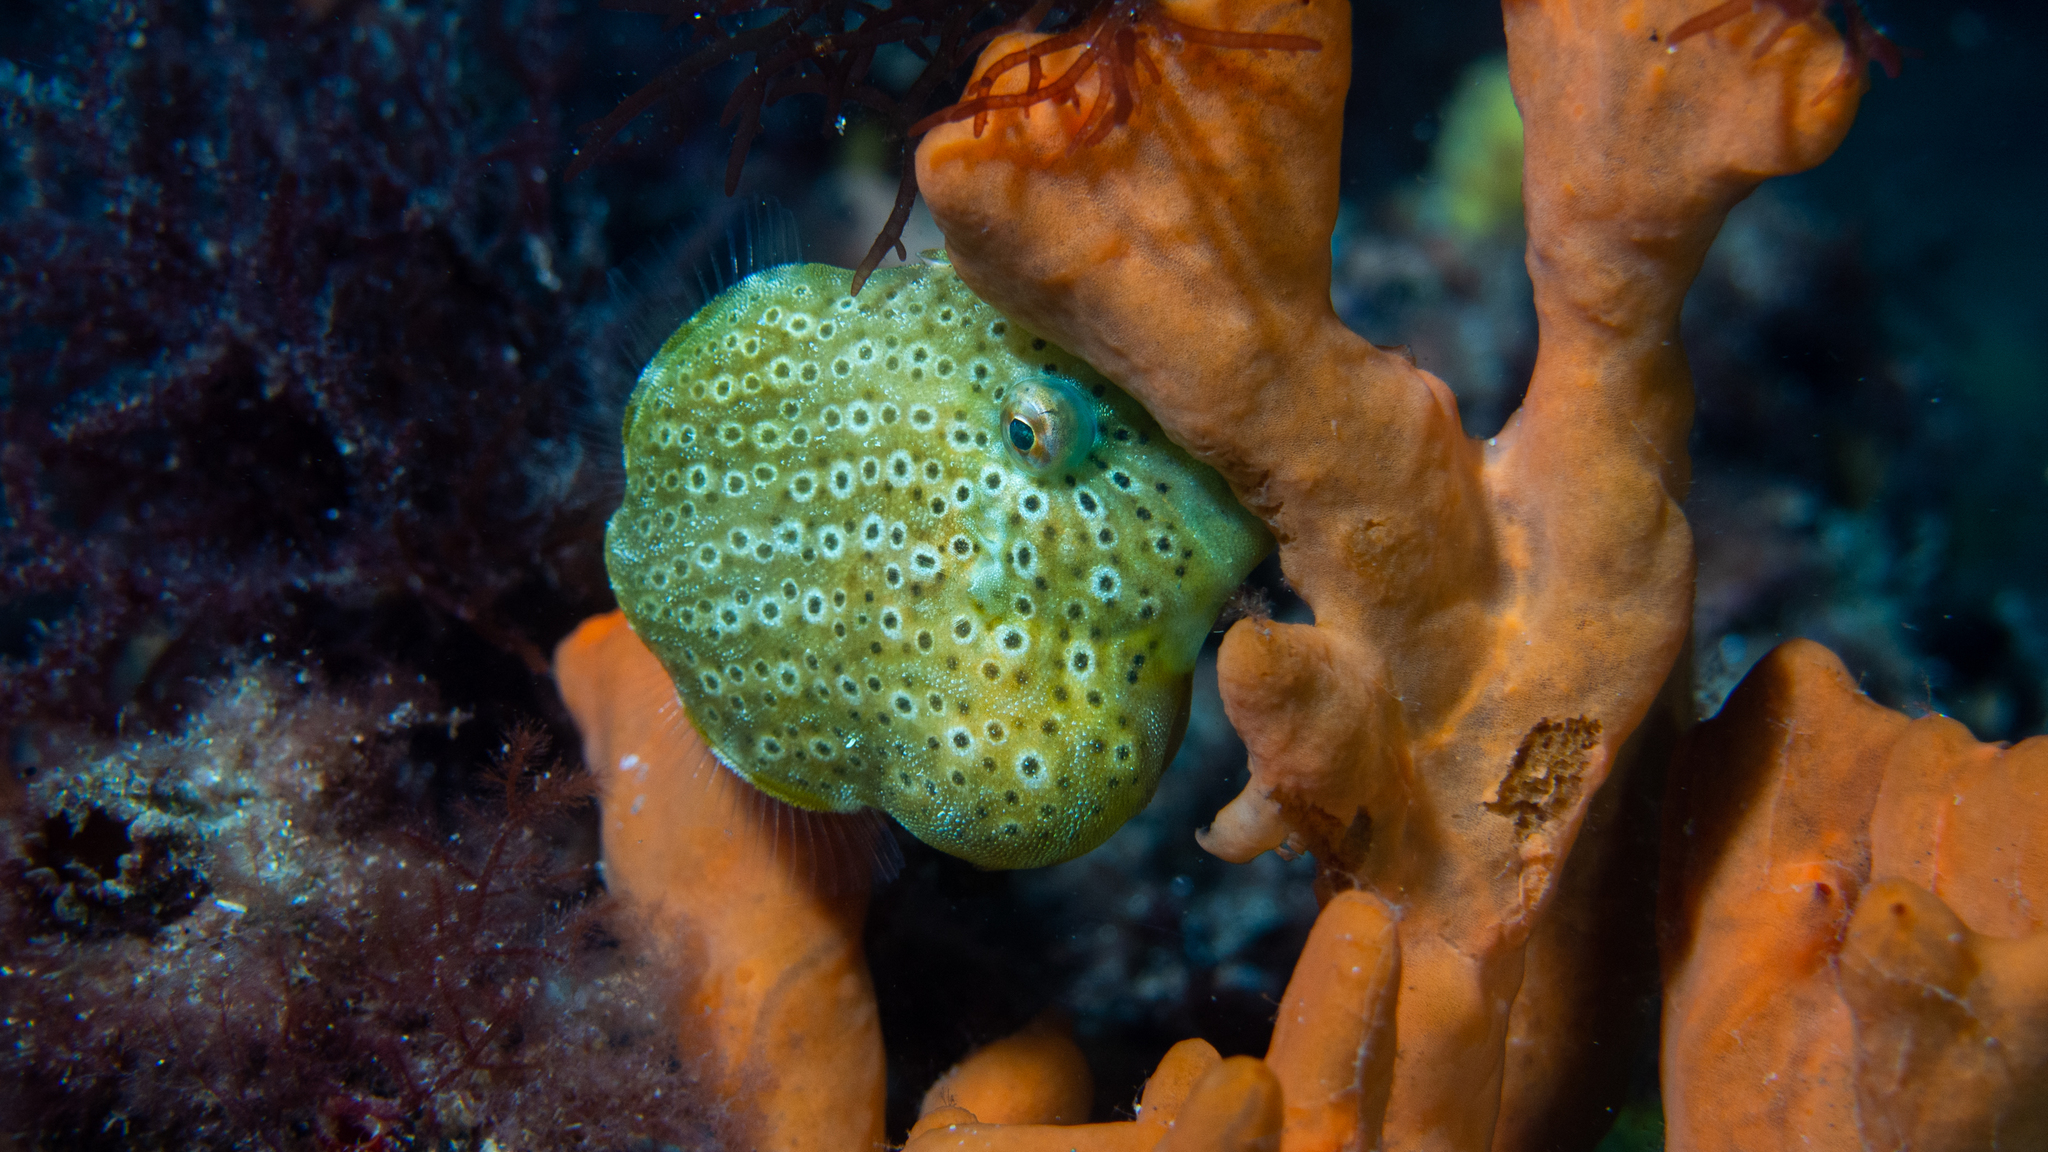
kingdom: Animalia
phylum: Chordata
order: Tetraodontiformes
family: Monacanthidae
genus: Brachaluteres
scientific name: Brachaluteres jacksonianus
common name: Pigmy leatherjacket
